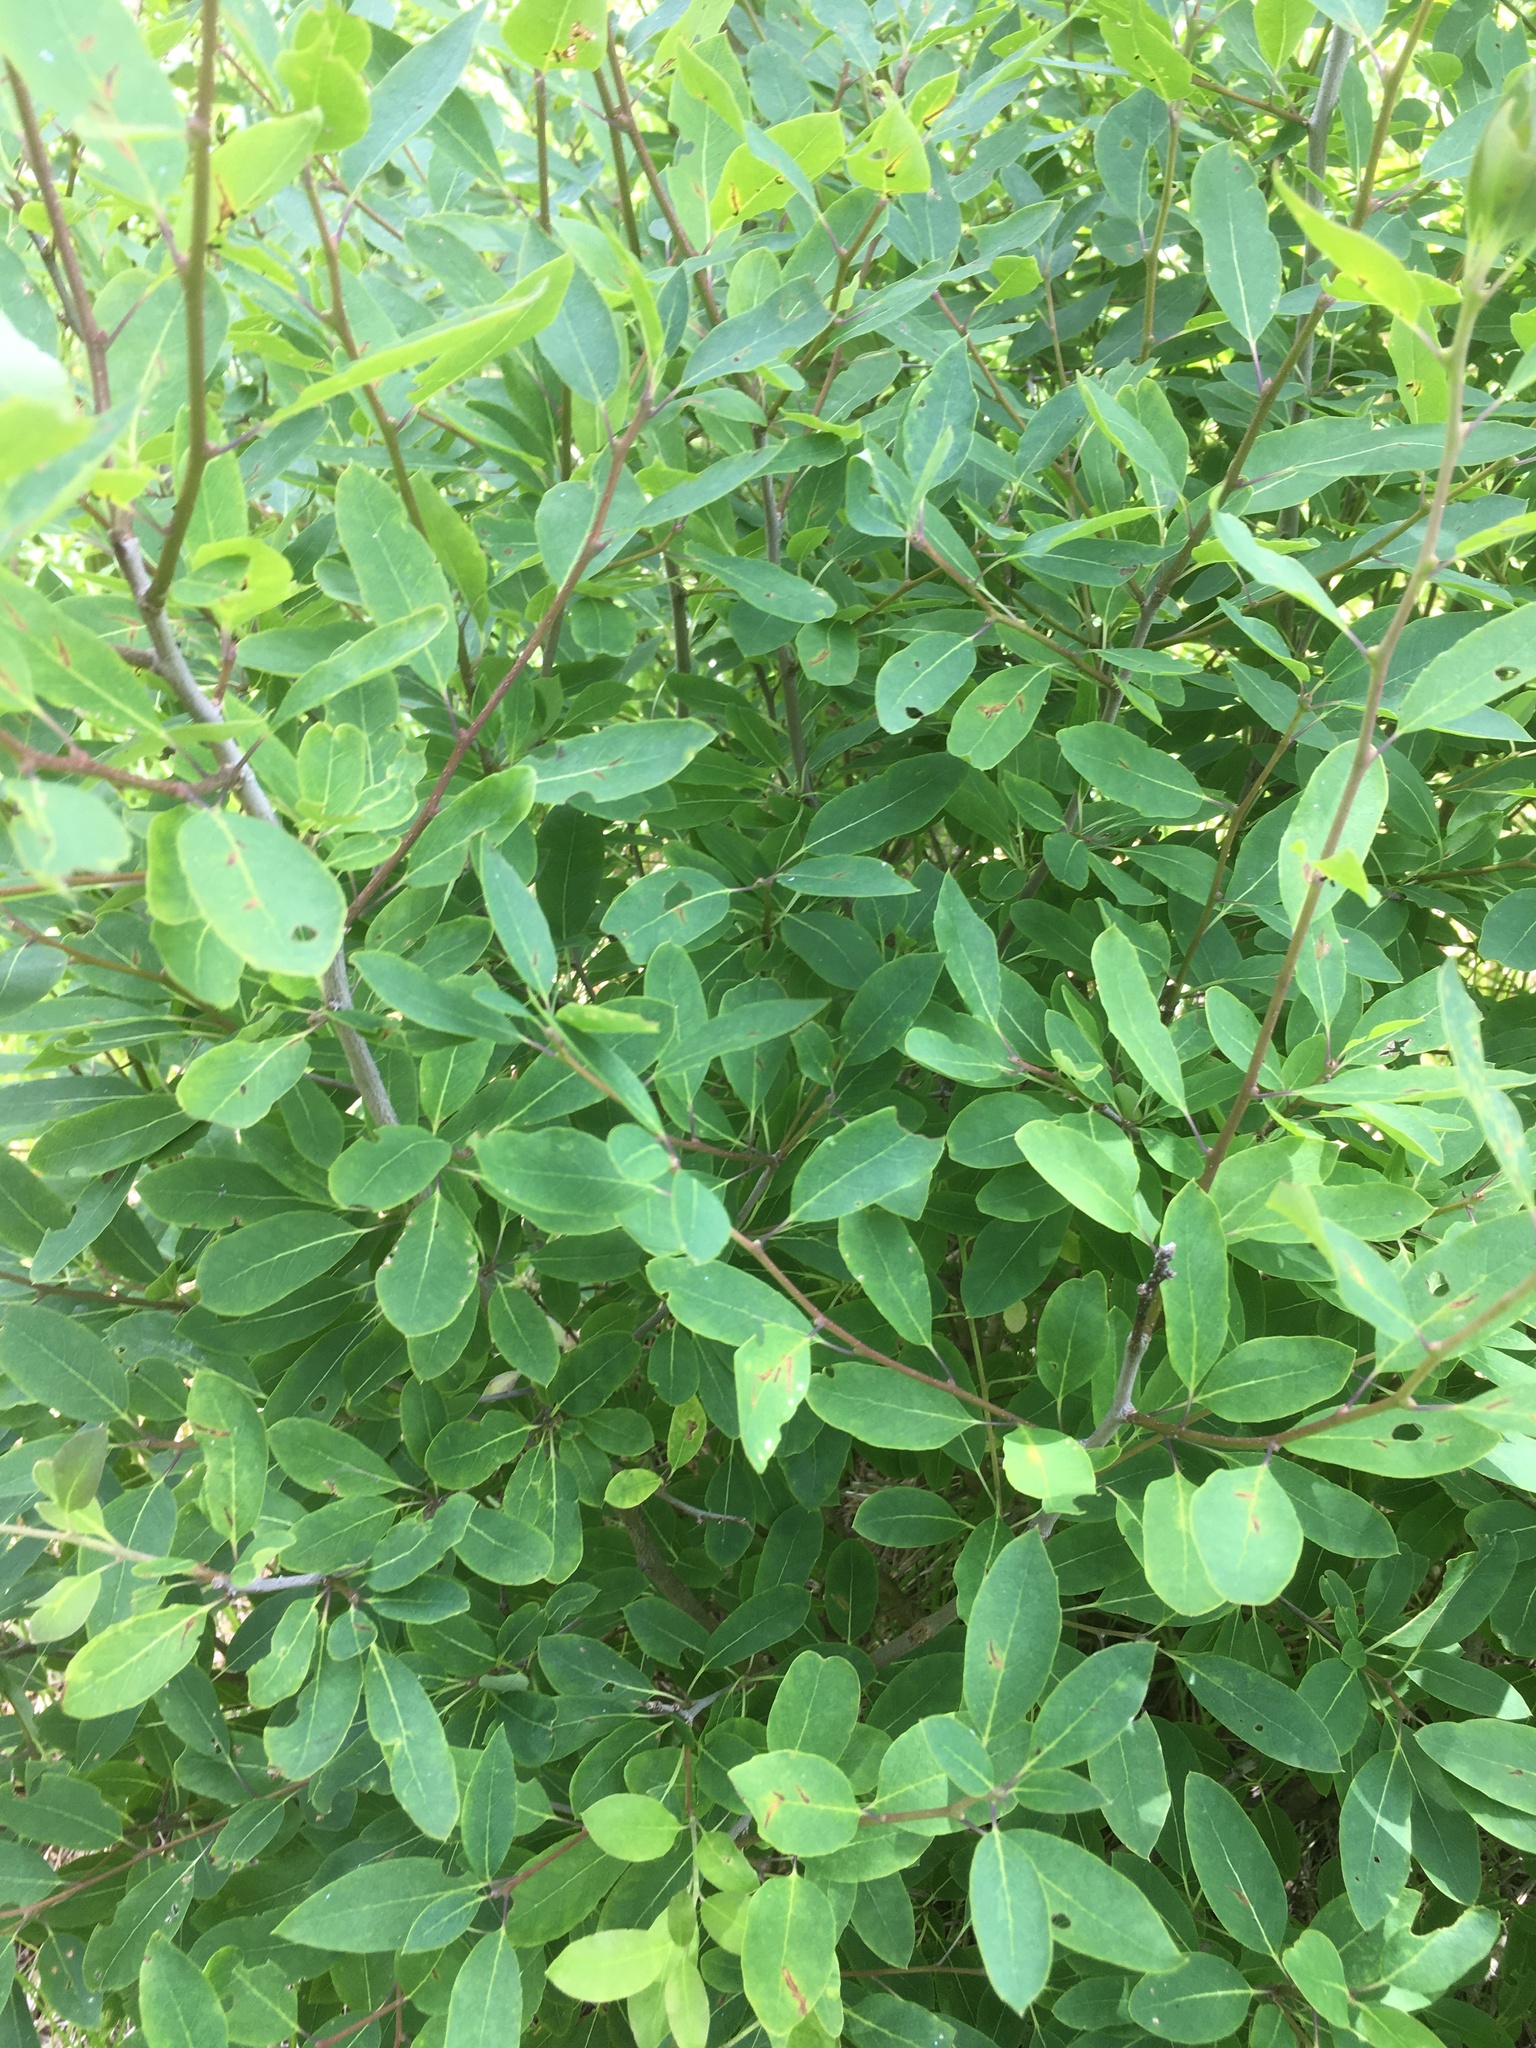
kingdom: Plantae
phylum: Tracheophyta
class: Magnoliopsida
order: Aquifoliales
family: Aquifoliaceae
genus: Ilex
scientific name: Ilex mucronata
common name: Catberry
